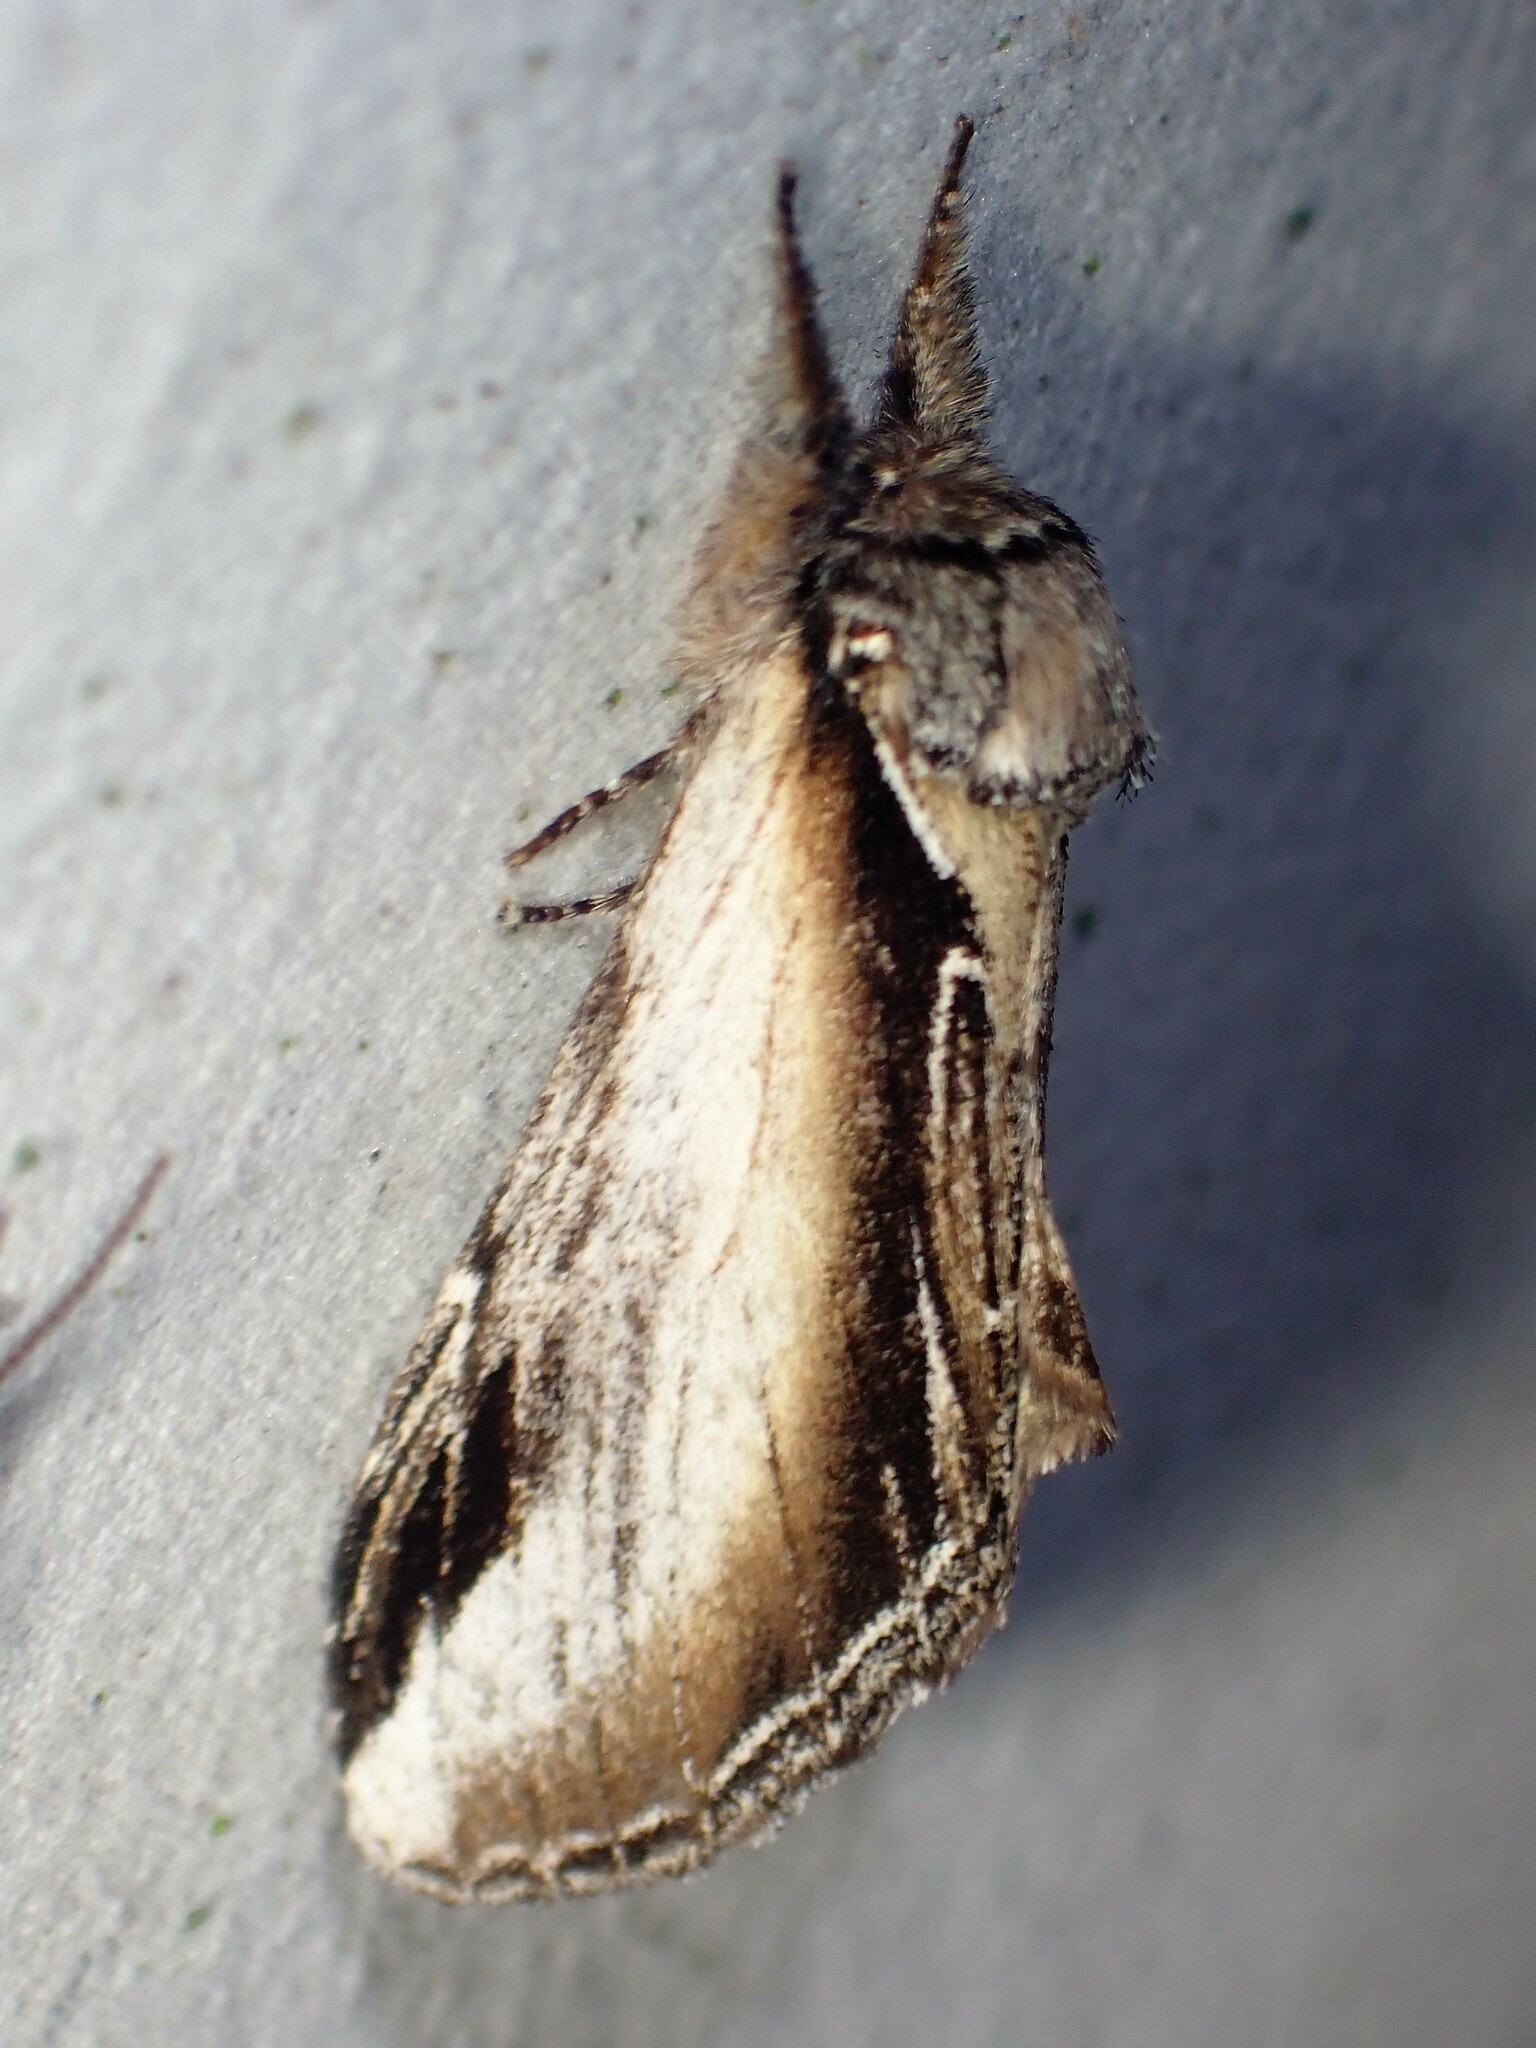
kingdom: Animalia
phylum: Arthropoda
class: Insecta
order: Lepidoptera
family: Notodontidae
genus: Pheosia
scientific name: Pheosia rimosa
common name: Black-rimmed prominent
